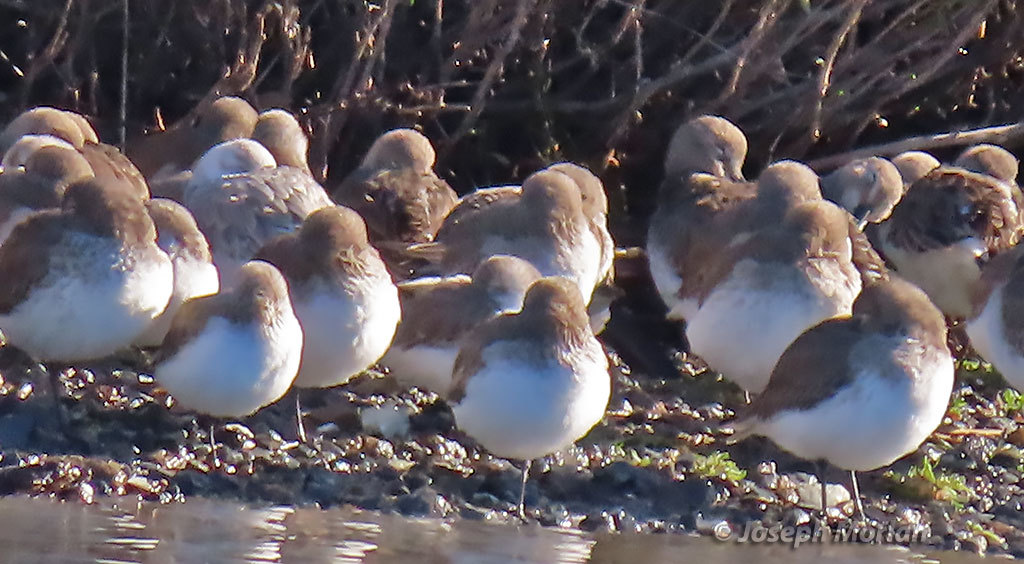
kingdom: Animalia
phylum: Chordata
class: Aves
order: Charadriiformes
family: Scolopacidae
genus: Calidris
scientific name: Calidris
